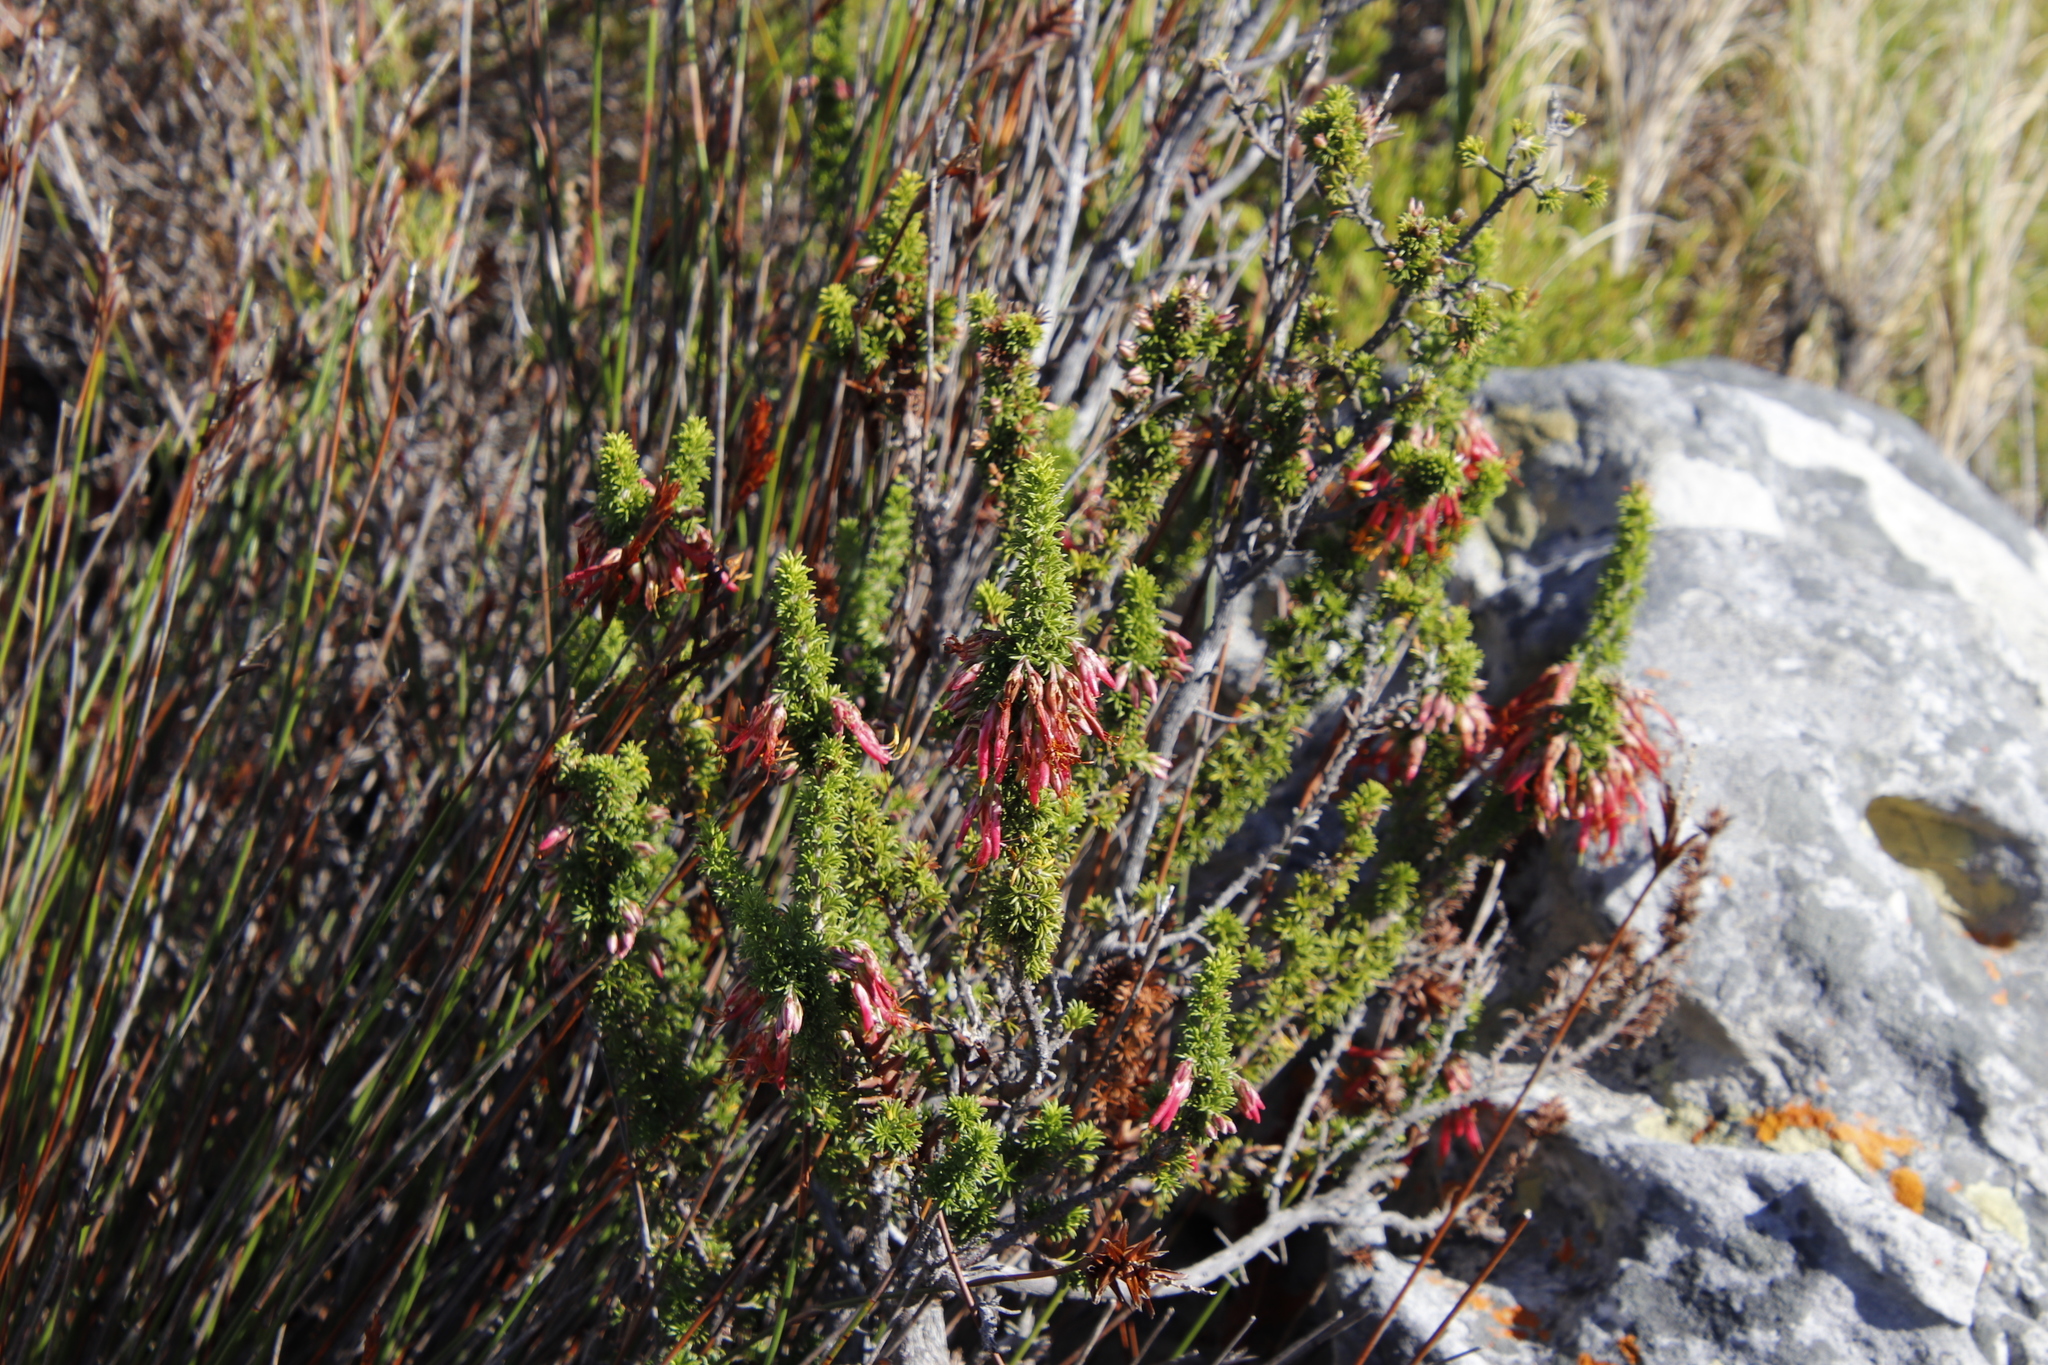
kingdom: Plantae
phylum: Tracheophyta
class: Magnoliopsida
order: Ericales
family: Ericaceae
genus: Erica
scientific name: Erica coccinea
